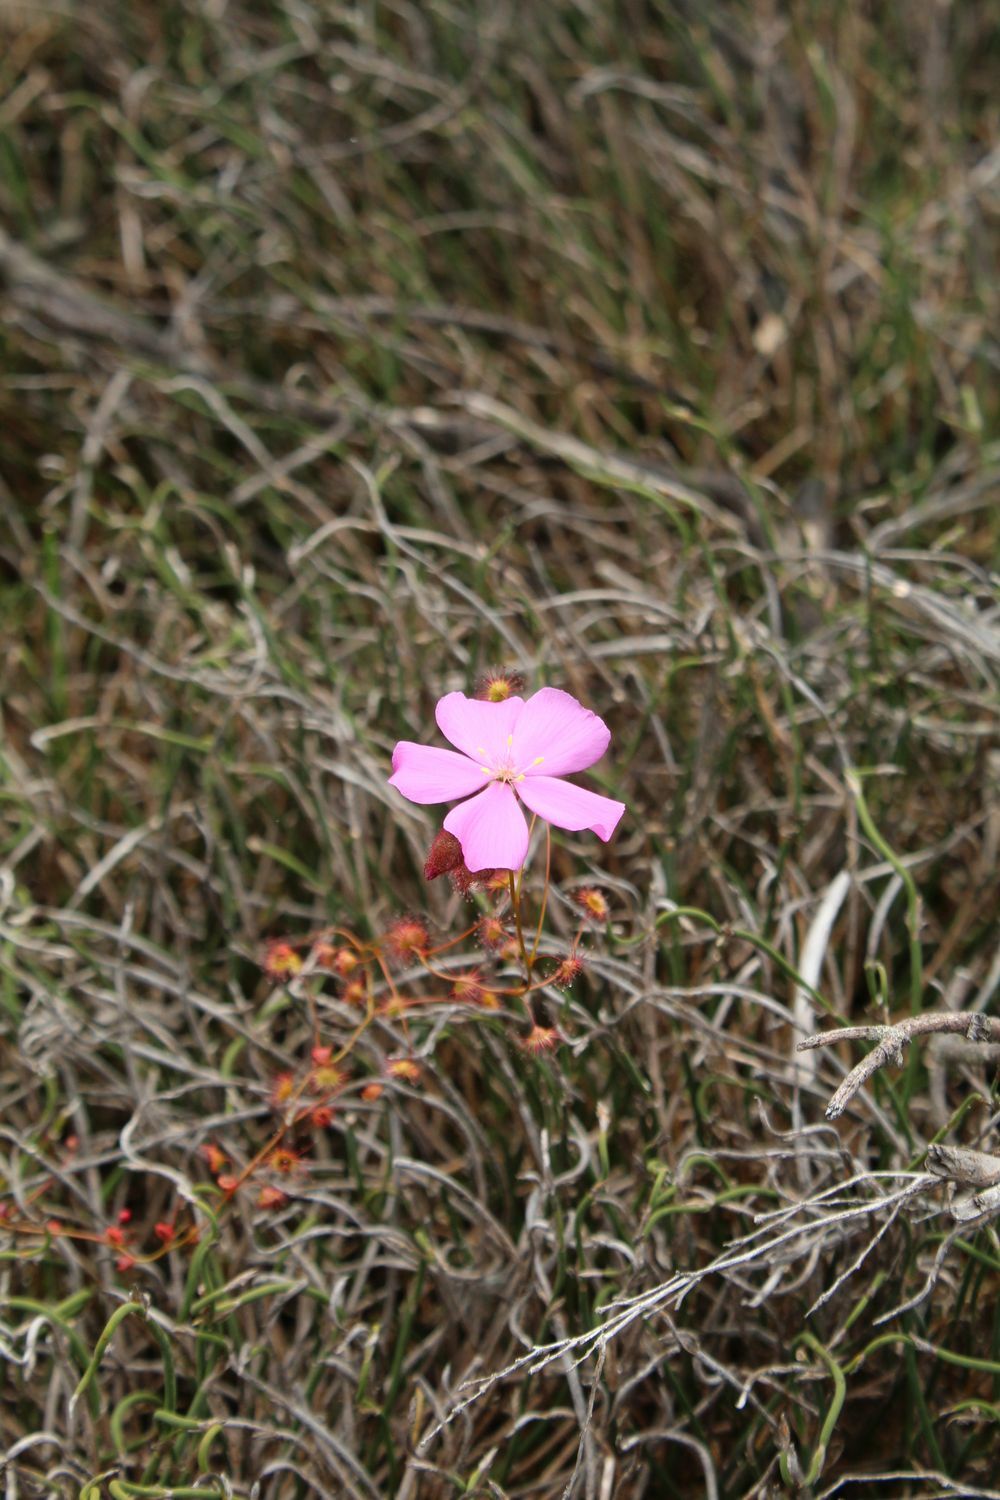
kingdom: Plantae
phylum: Tracheophyta
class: Magnoliopsida
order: Caryophyllales
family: Droseraceae
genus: Drosera
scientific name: Drosera
